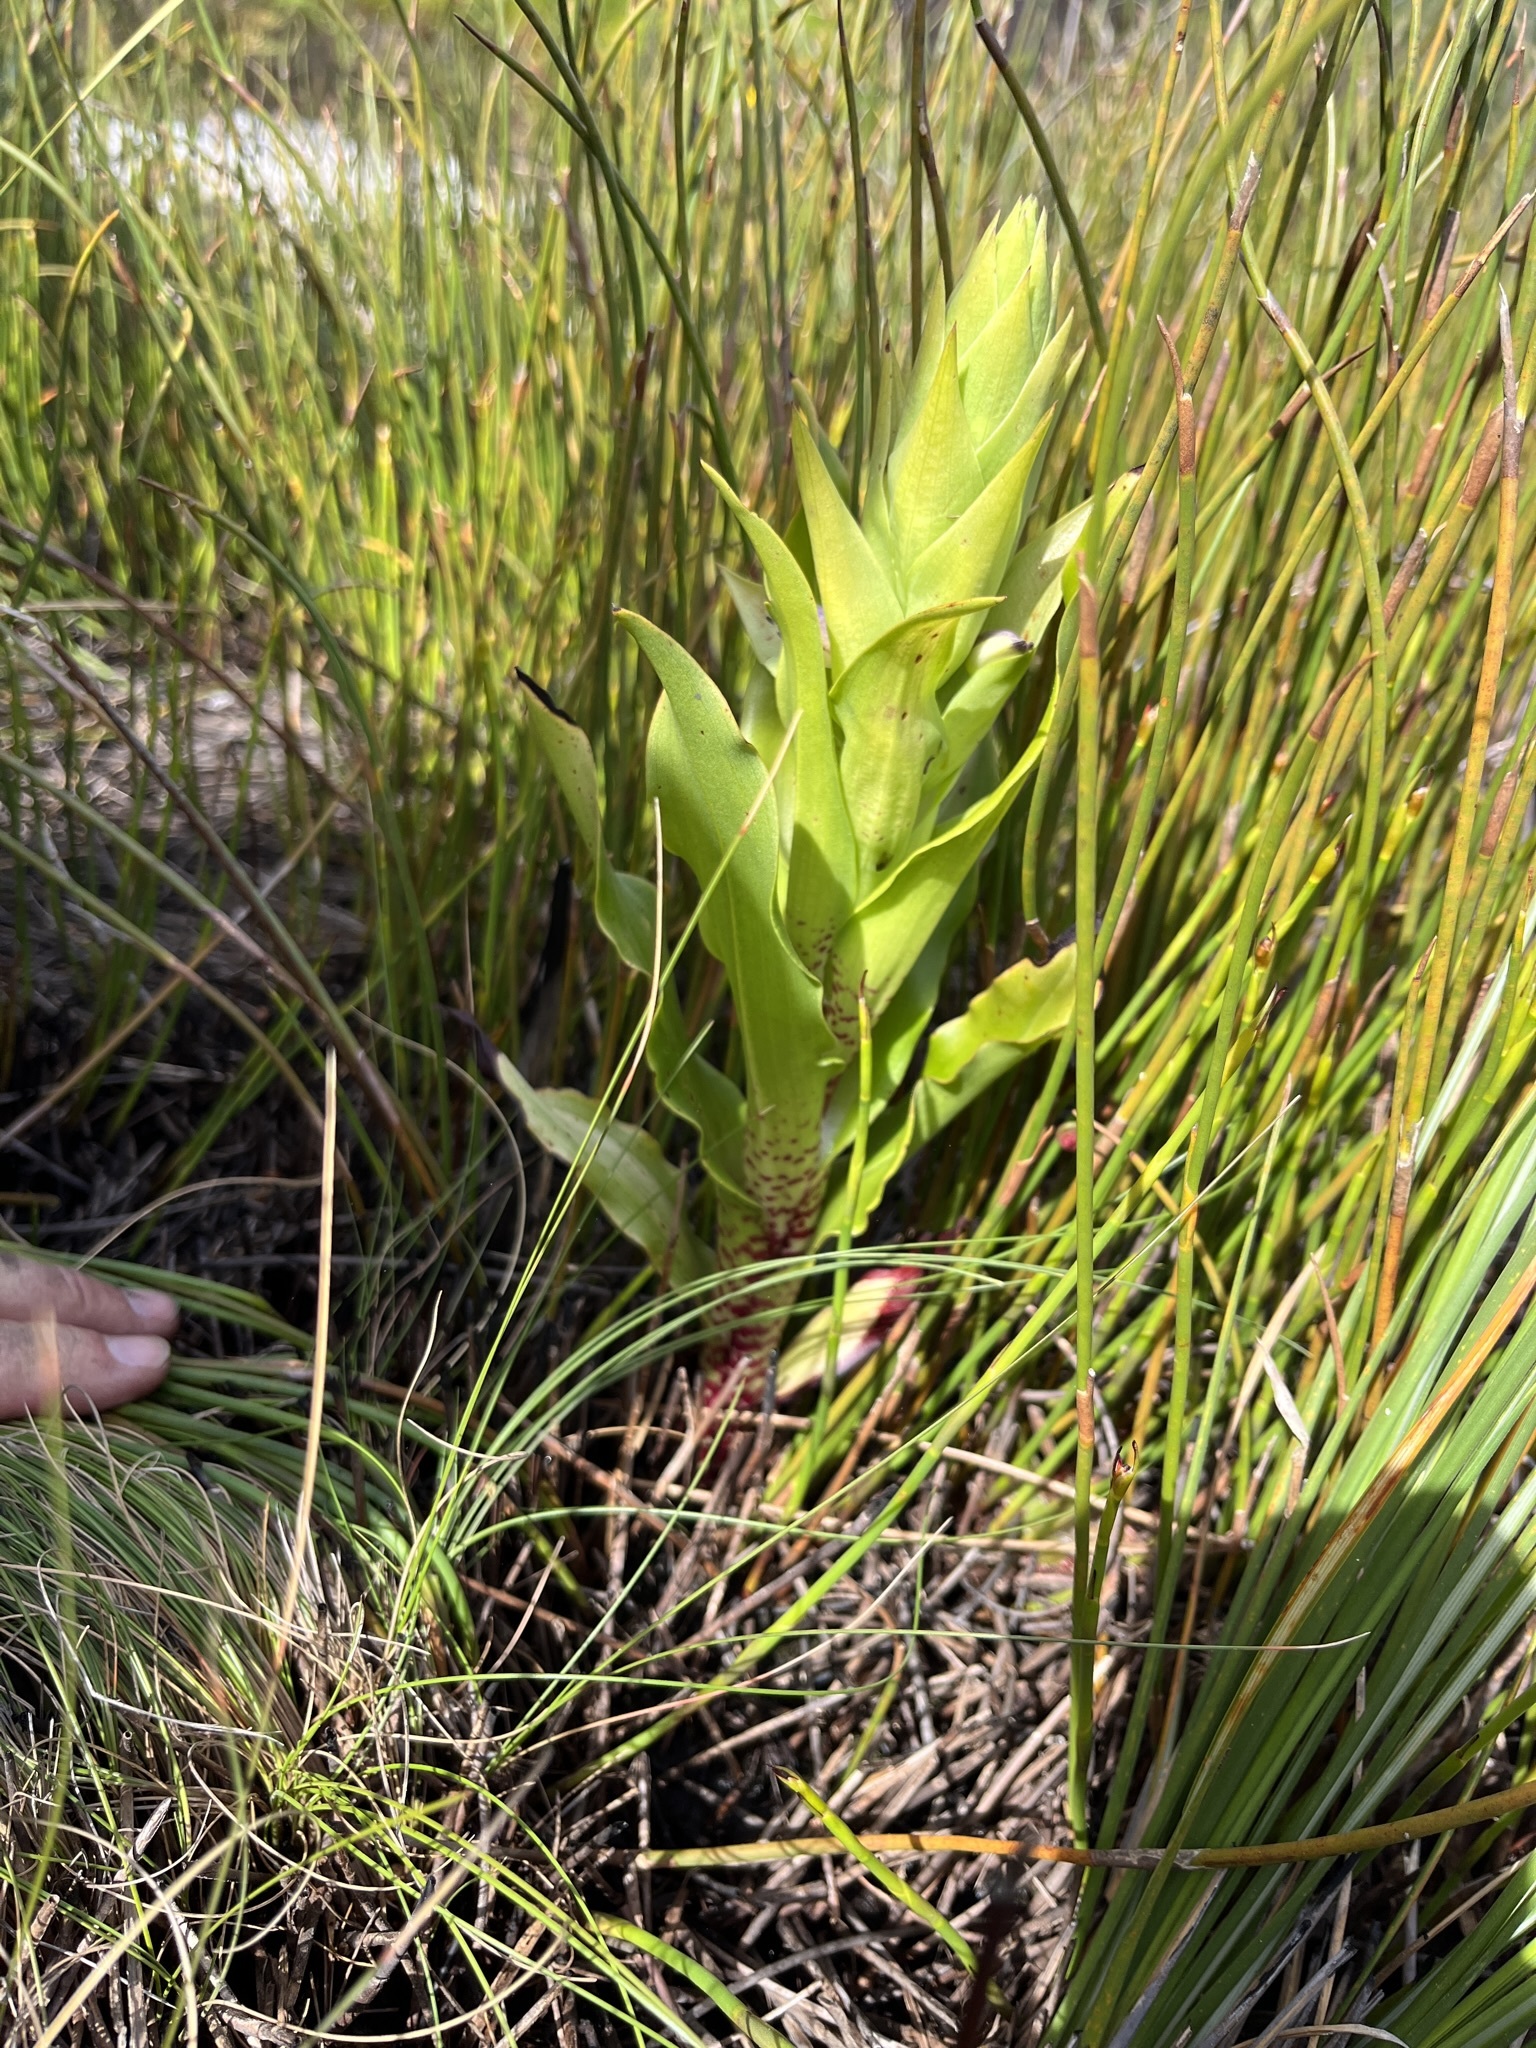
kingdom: Plantae
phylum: Tracheophyta
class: Liliopsida
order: Asparagales
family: Orchidaceae
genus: Disa
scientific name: Disa cornuta
